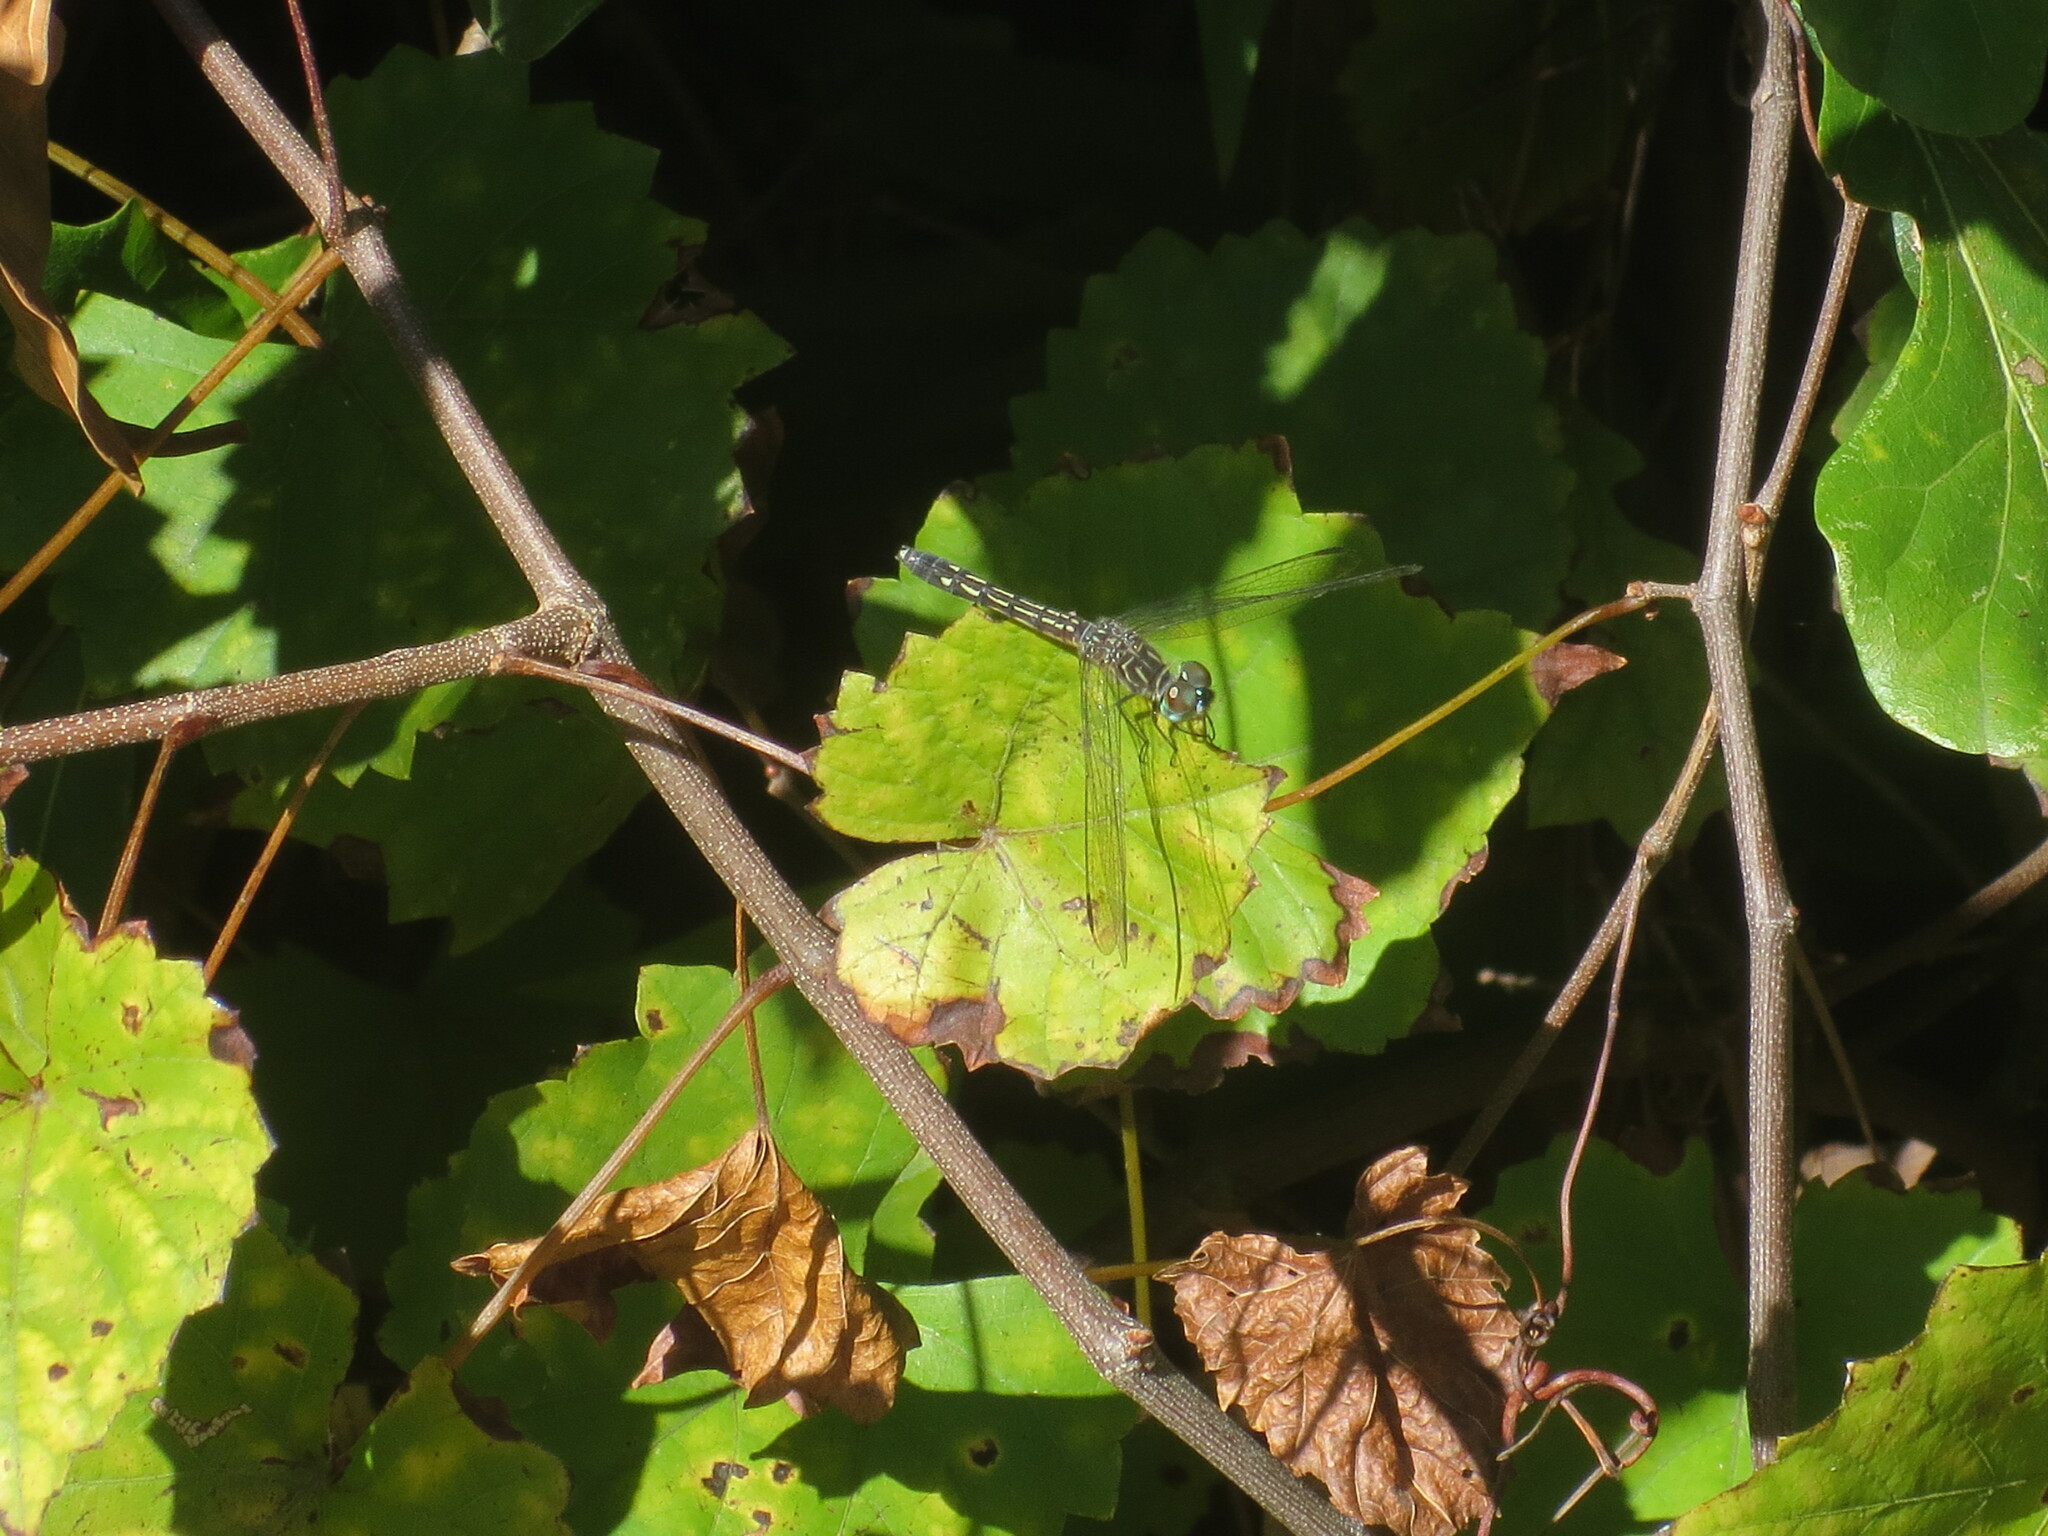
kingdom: Animalia
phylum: Arthropoda
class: Insecta
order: Odonata
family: Libellulidae
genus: Pachydiplax
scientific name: Pachydiplax longipennis
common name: Blue dasher
